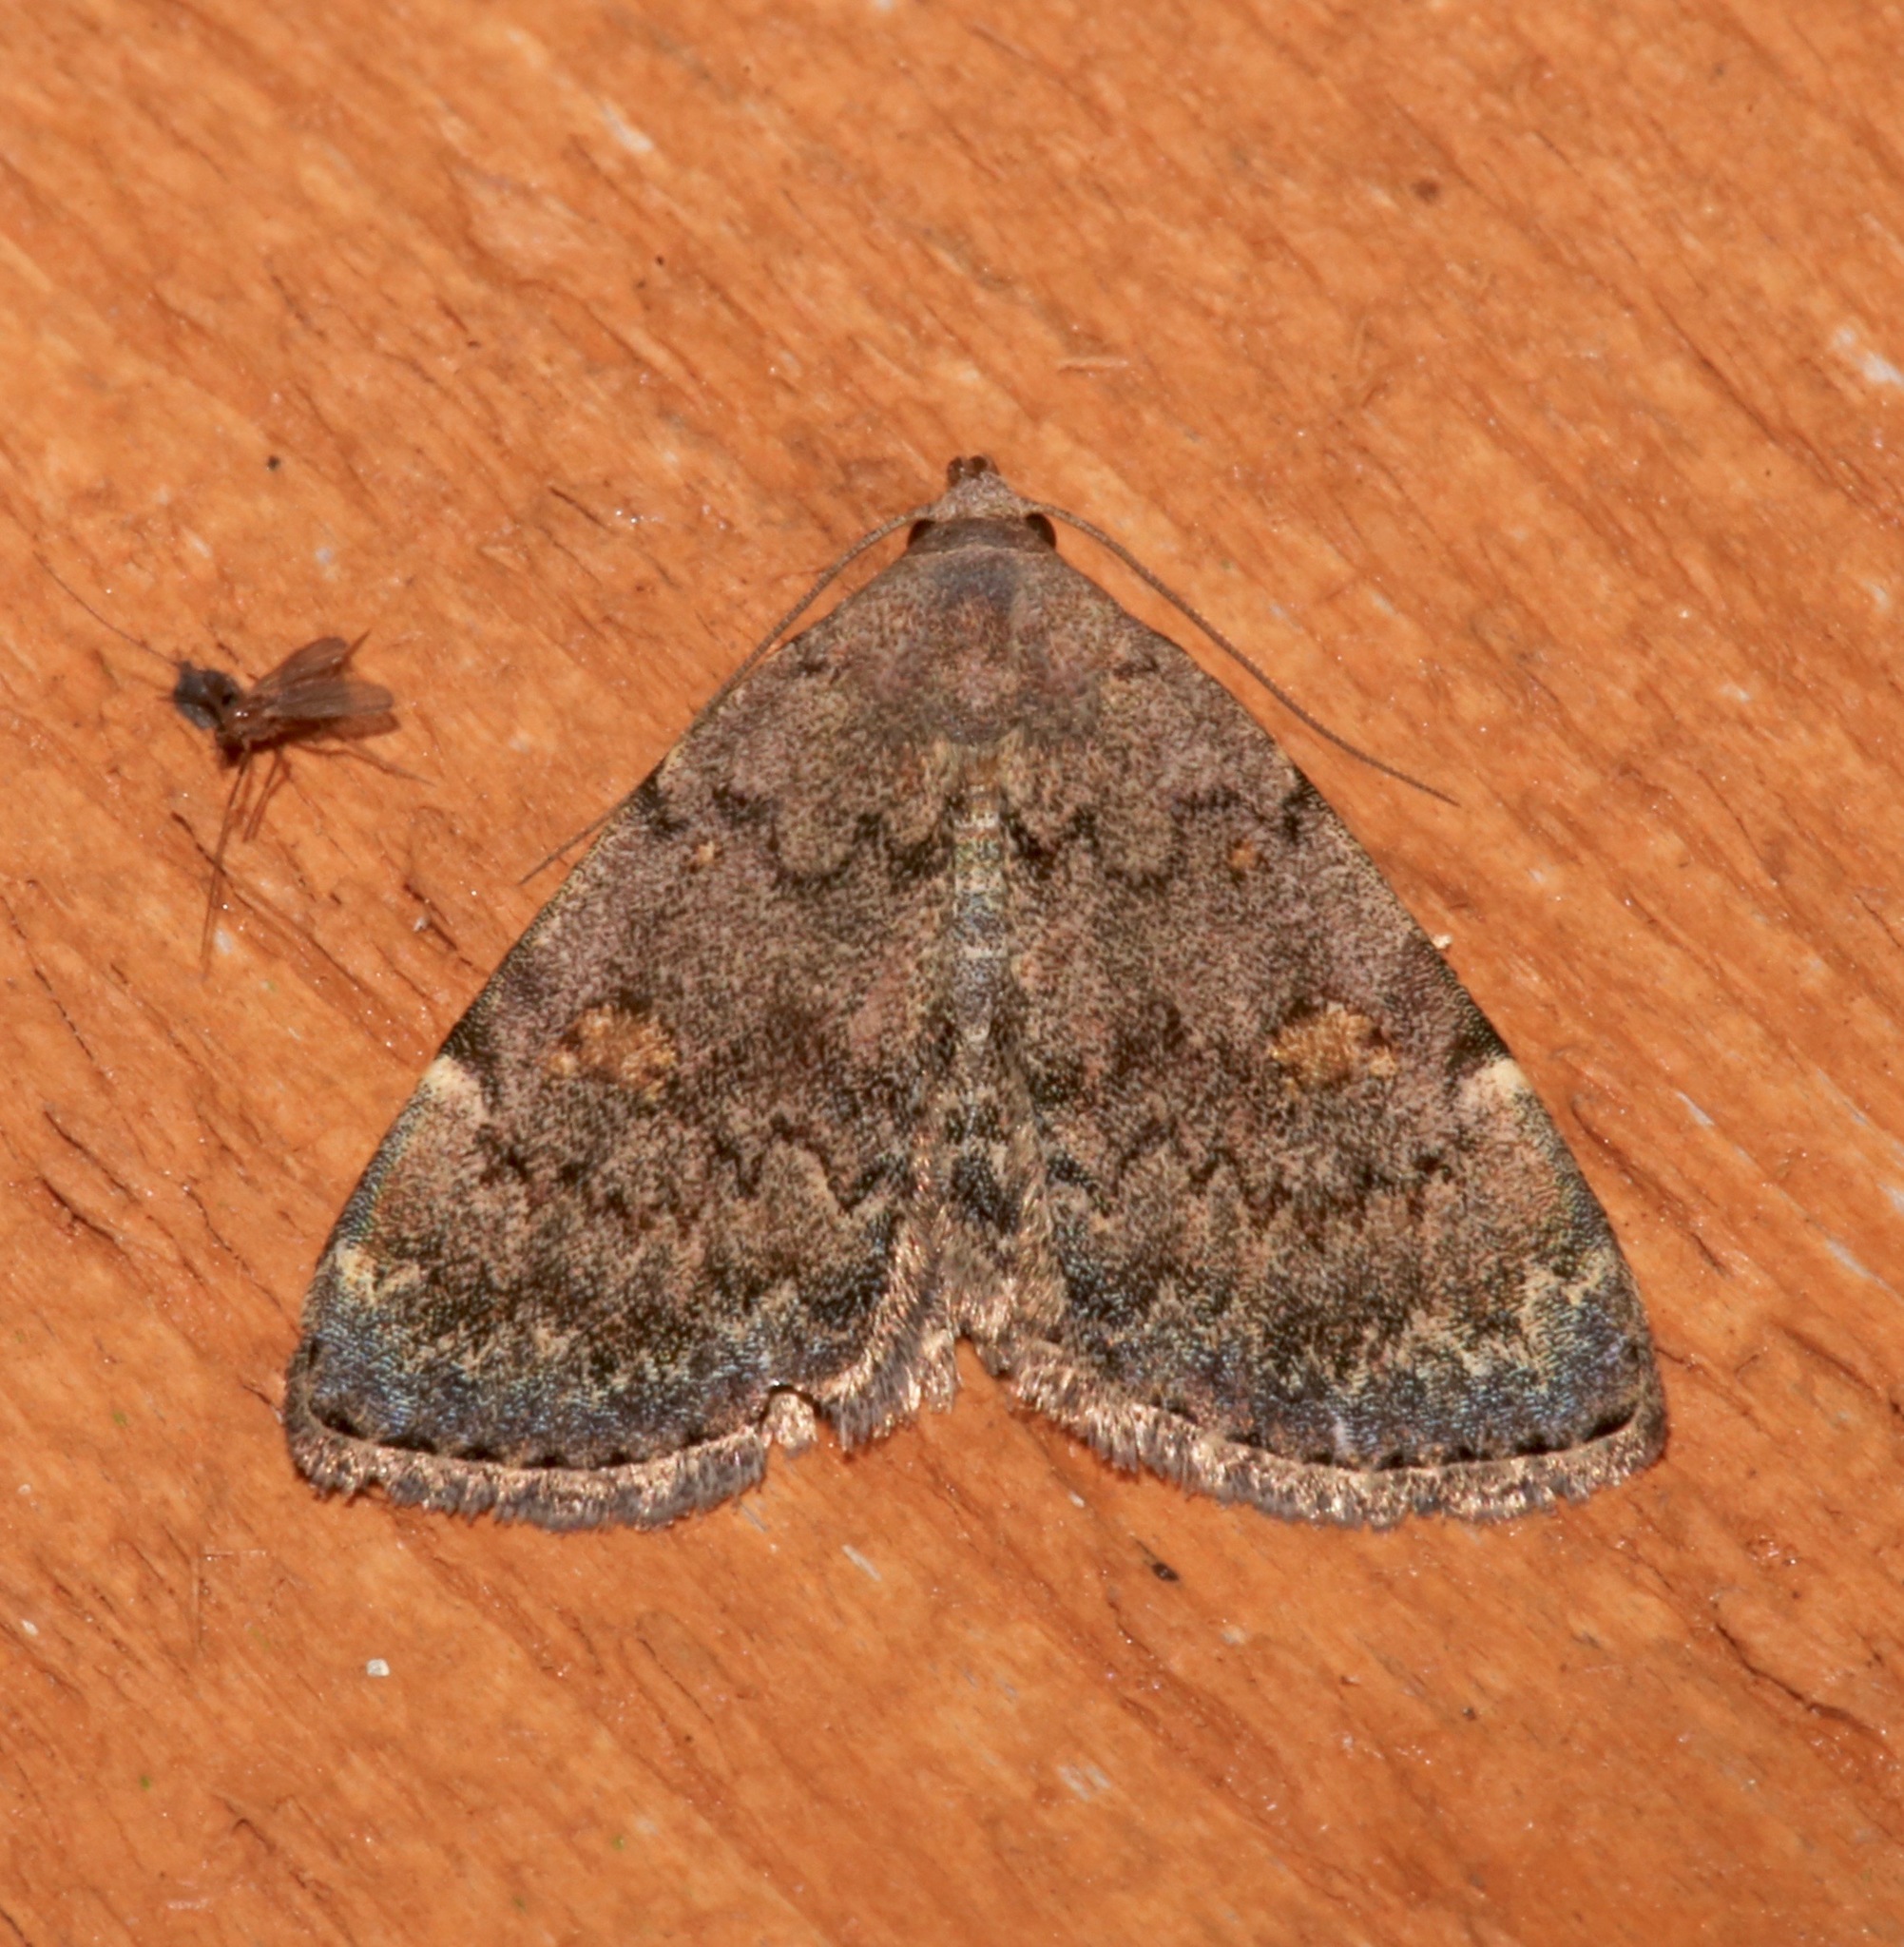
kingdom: Animalia
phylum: Arthropoda
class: Insecta
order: Lepidoptera
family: Erebidae
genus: Idia
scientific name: Idia aemula
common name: Common idia moth
